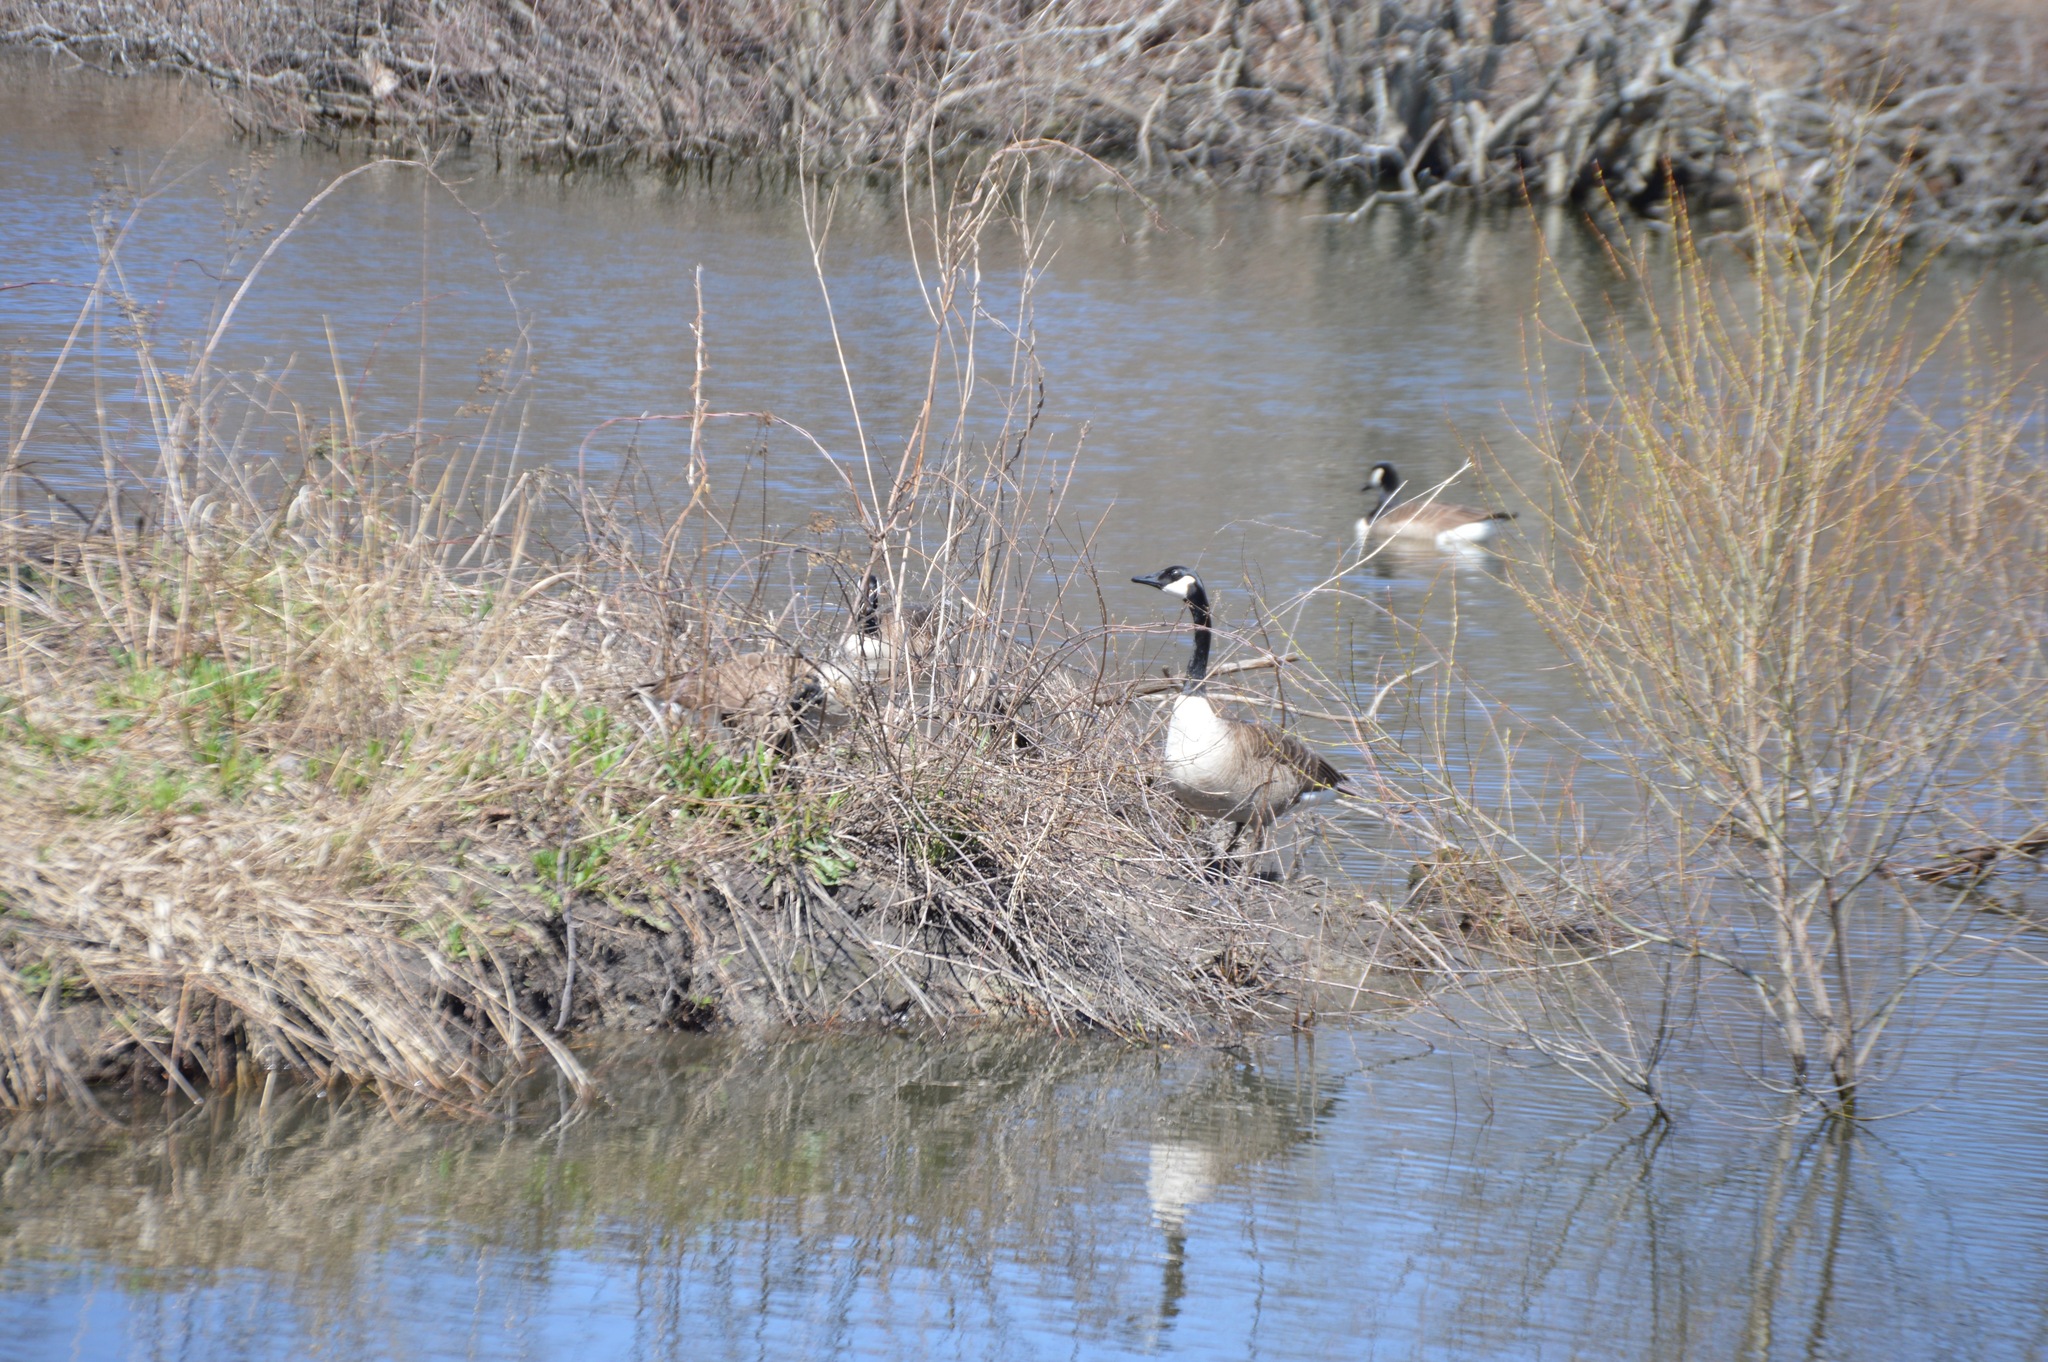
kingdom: Animalia
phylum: Chordata
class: Aves
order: Anseriformes
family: Anatidae
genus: Branta
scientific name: Branta canadensis
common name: Canada goose
